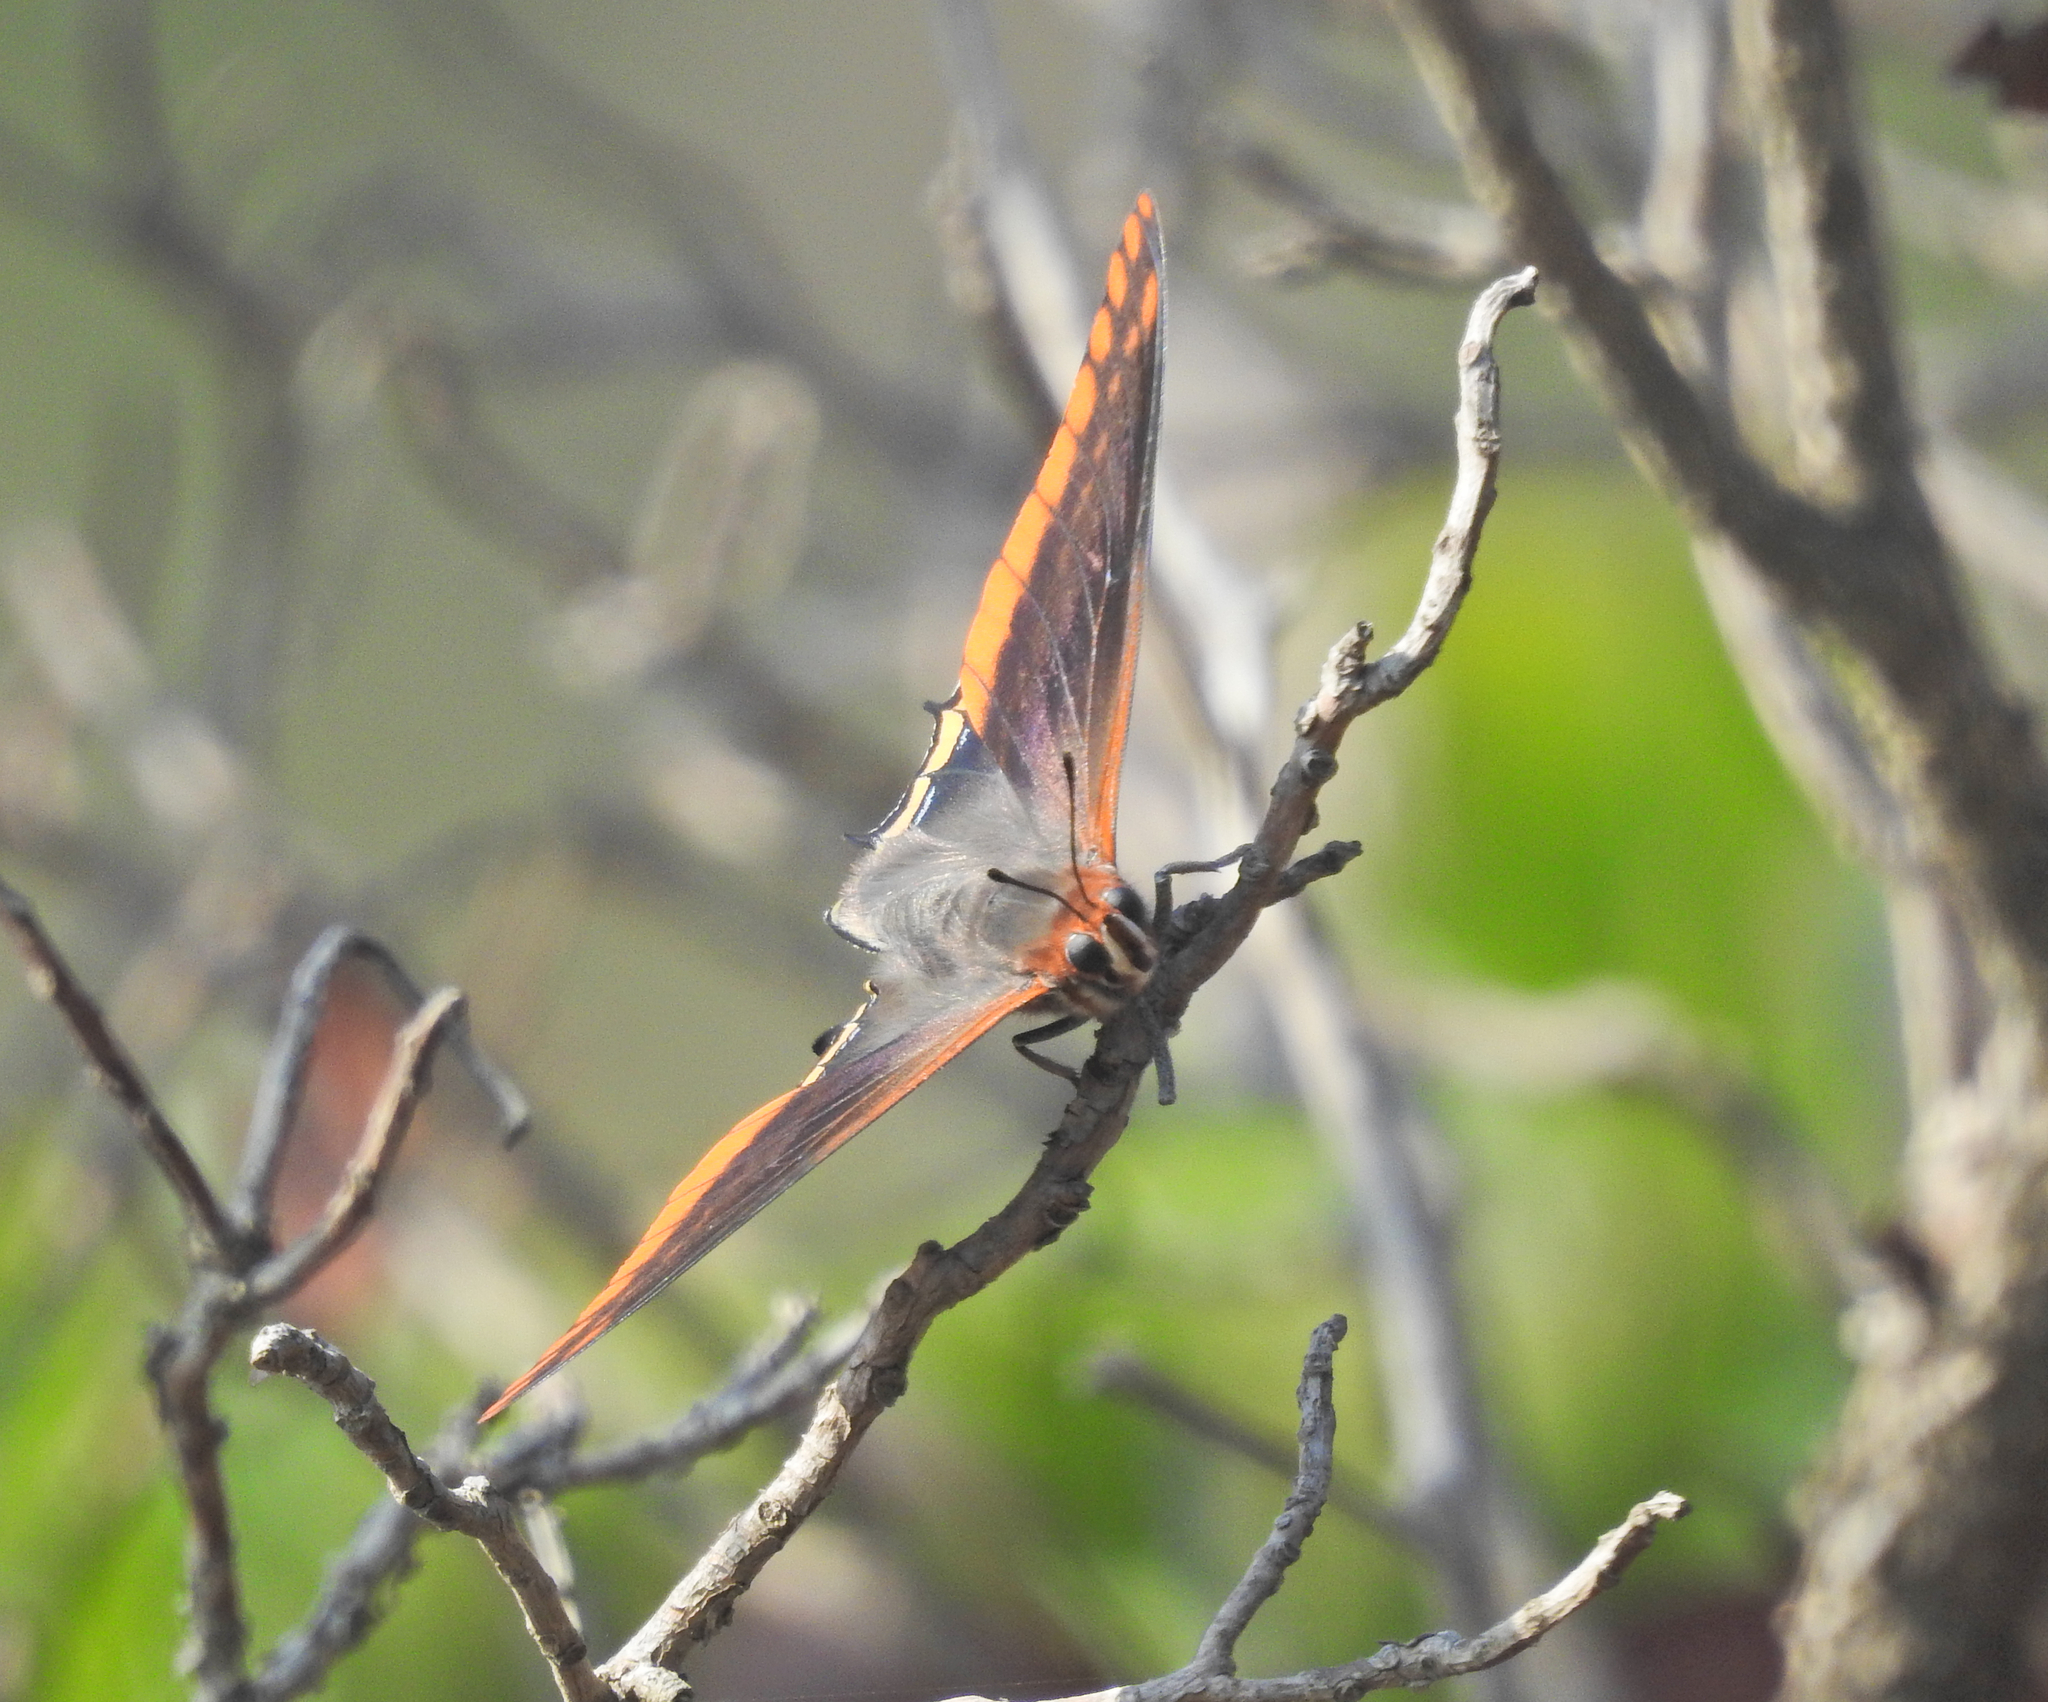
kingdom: Animalia
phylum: Arthropoda
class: Insecta
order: Lepidoptera
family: Nymphalidae
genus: Charaxes
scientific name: Charaxes jasius
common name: Two tailed pasha
